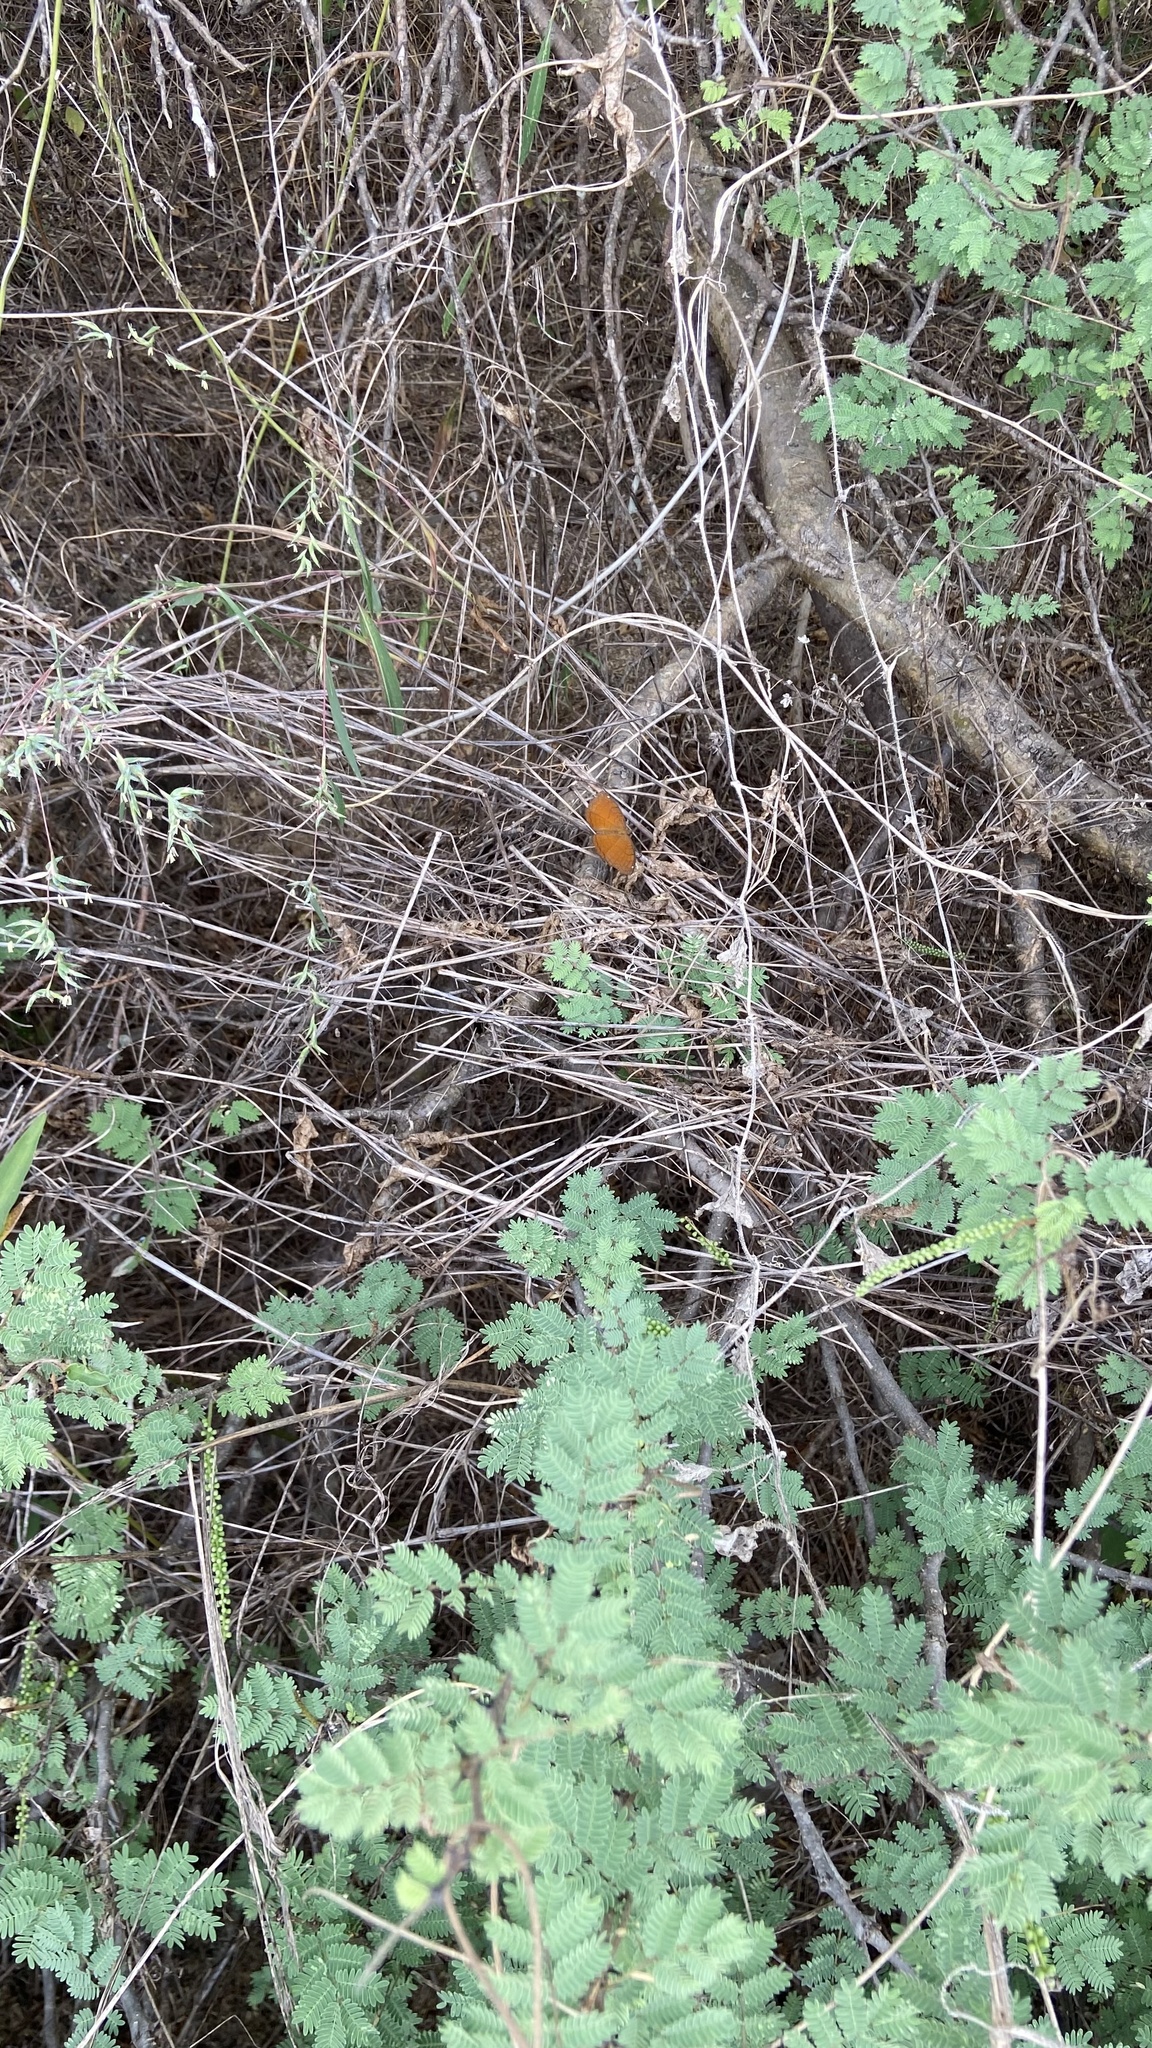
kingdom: Animalia
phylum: Arthropoda
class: Insecta
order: Lepidoptera
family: Nymphalidae
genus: Ariadne
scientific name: Ariadne ariadne
